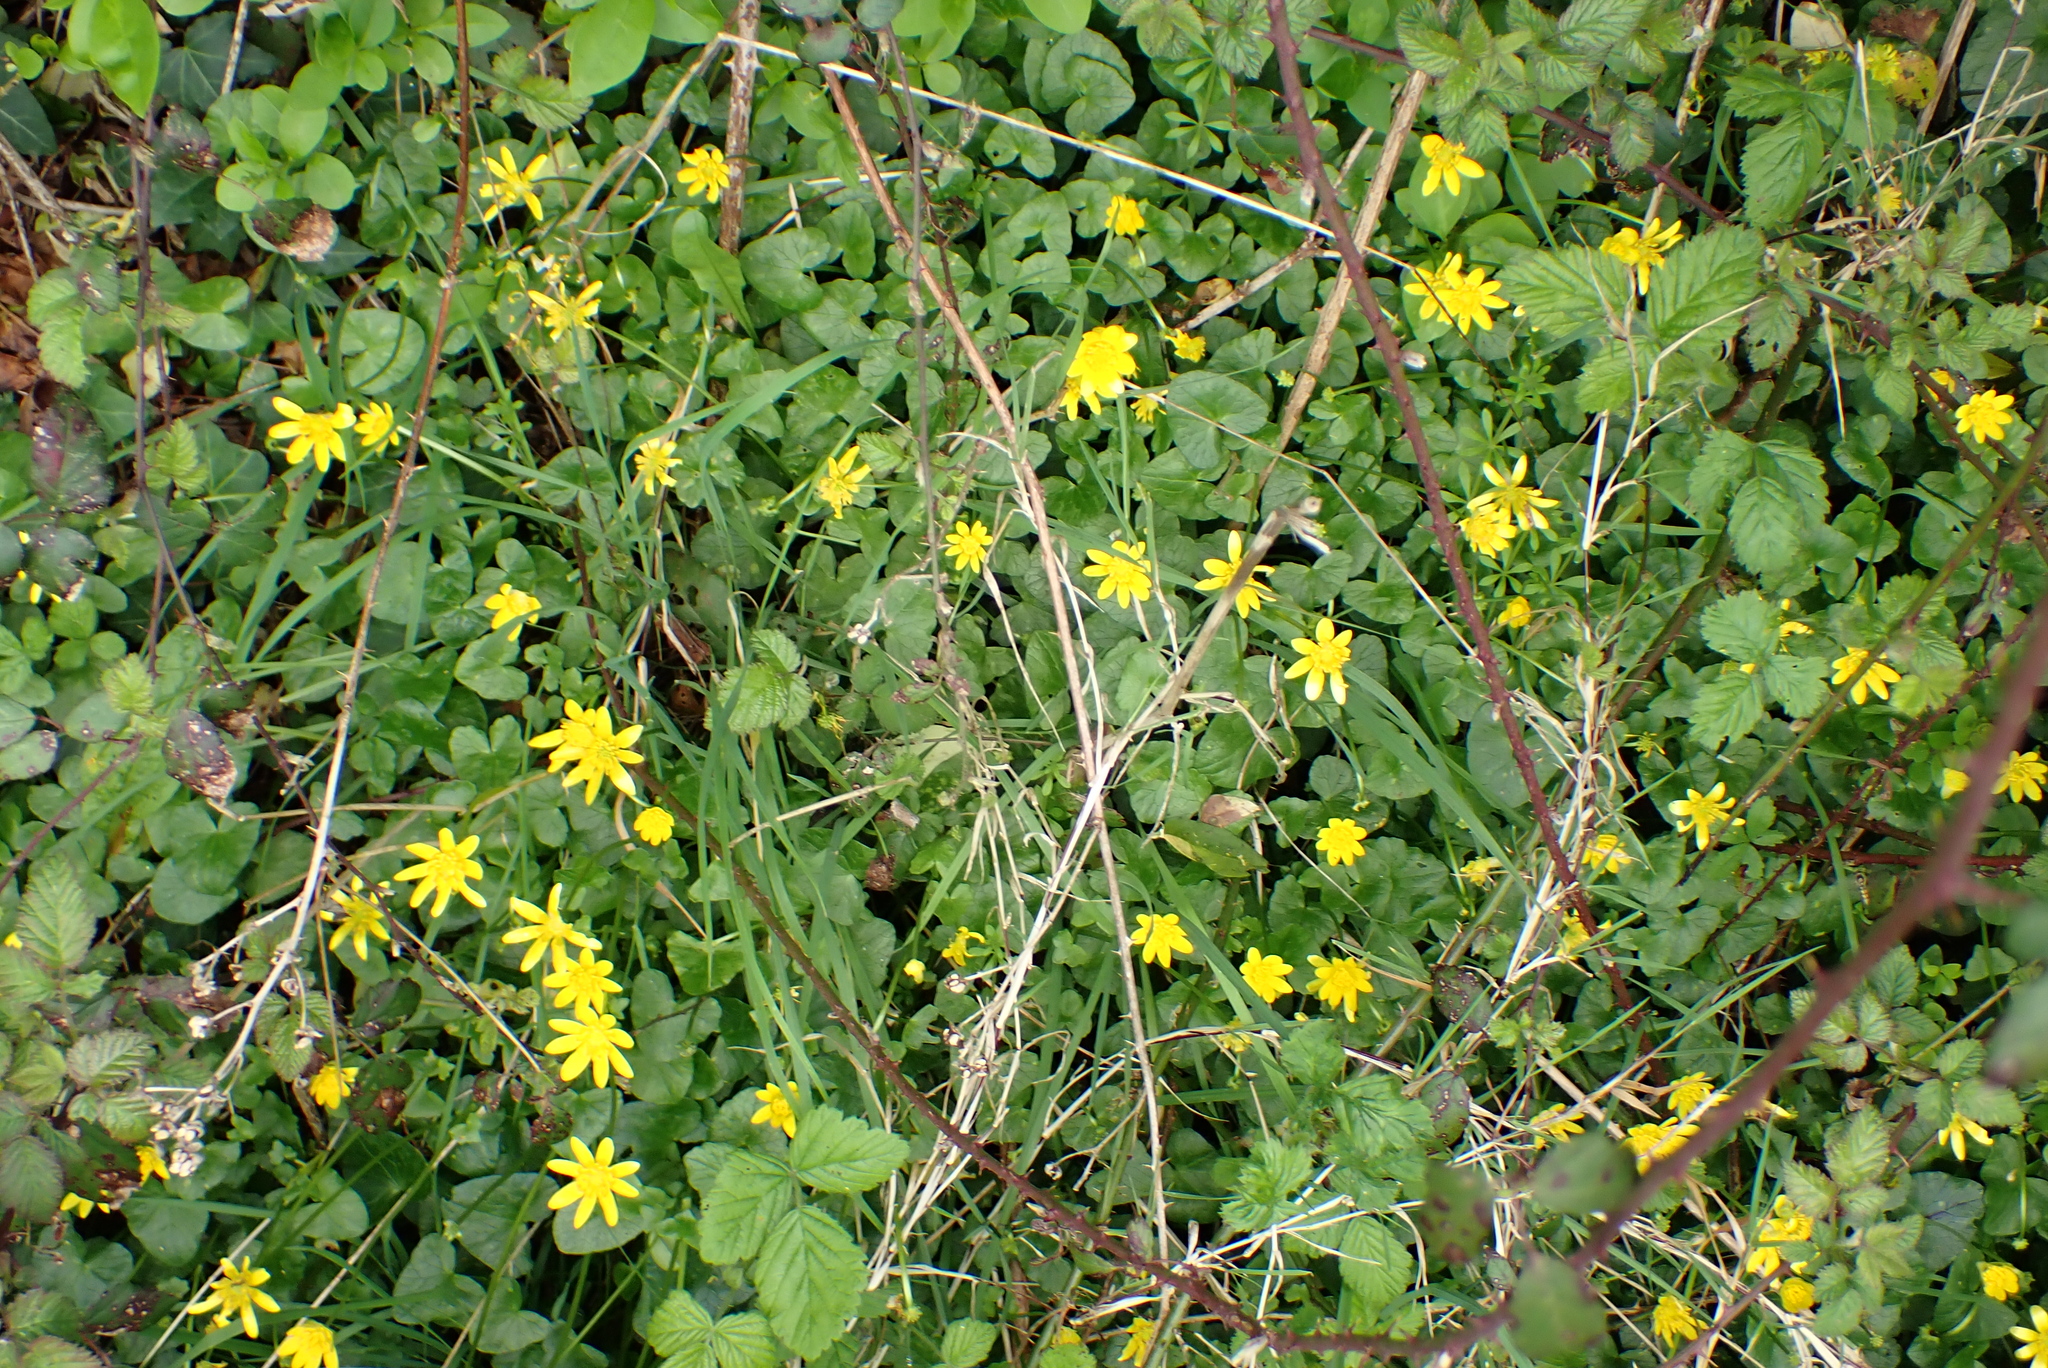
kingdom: Plantae
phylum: Tracheophyta
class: Magnoliopsida
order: Ranunculales
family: Ranunculaceae
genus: Ficaria
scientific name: Ficaria verna
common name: Lesser celandine
